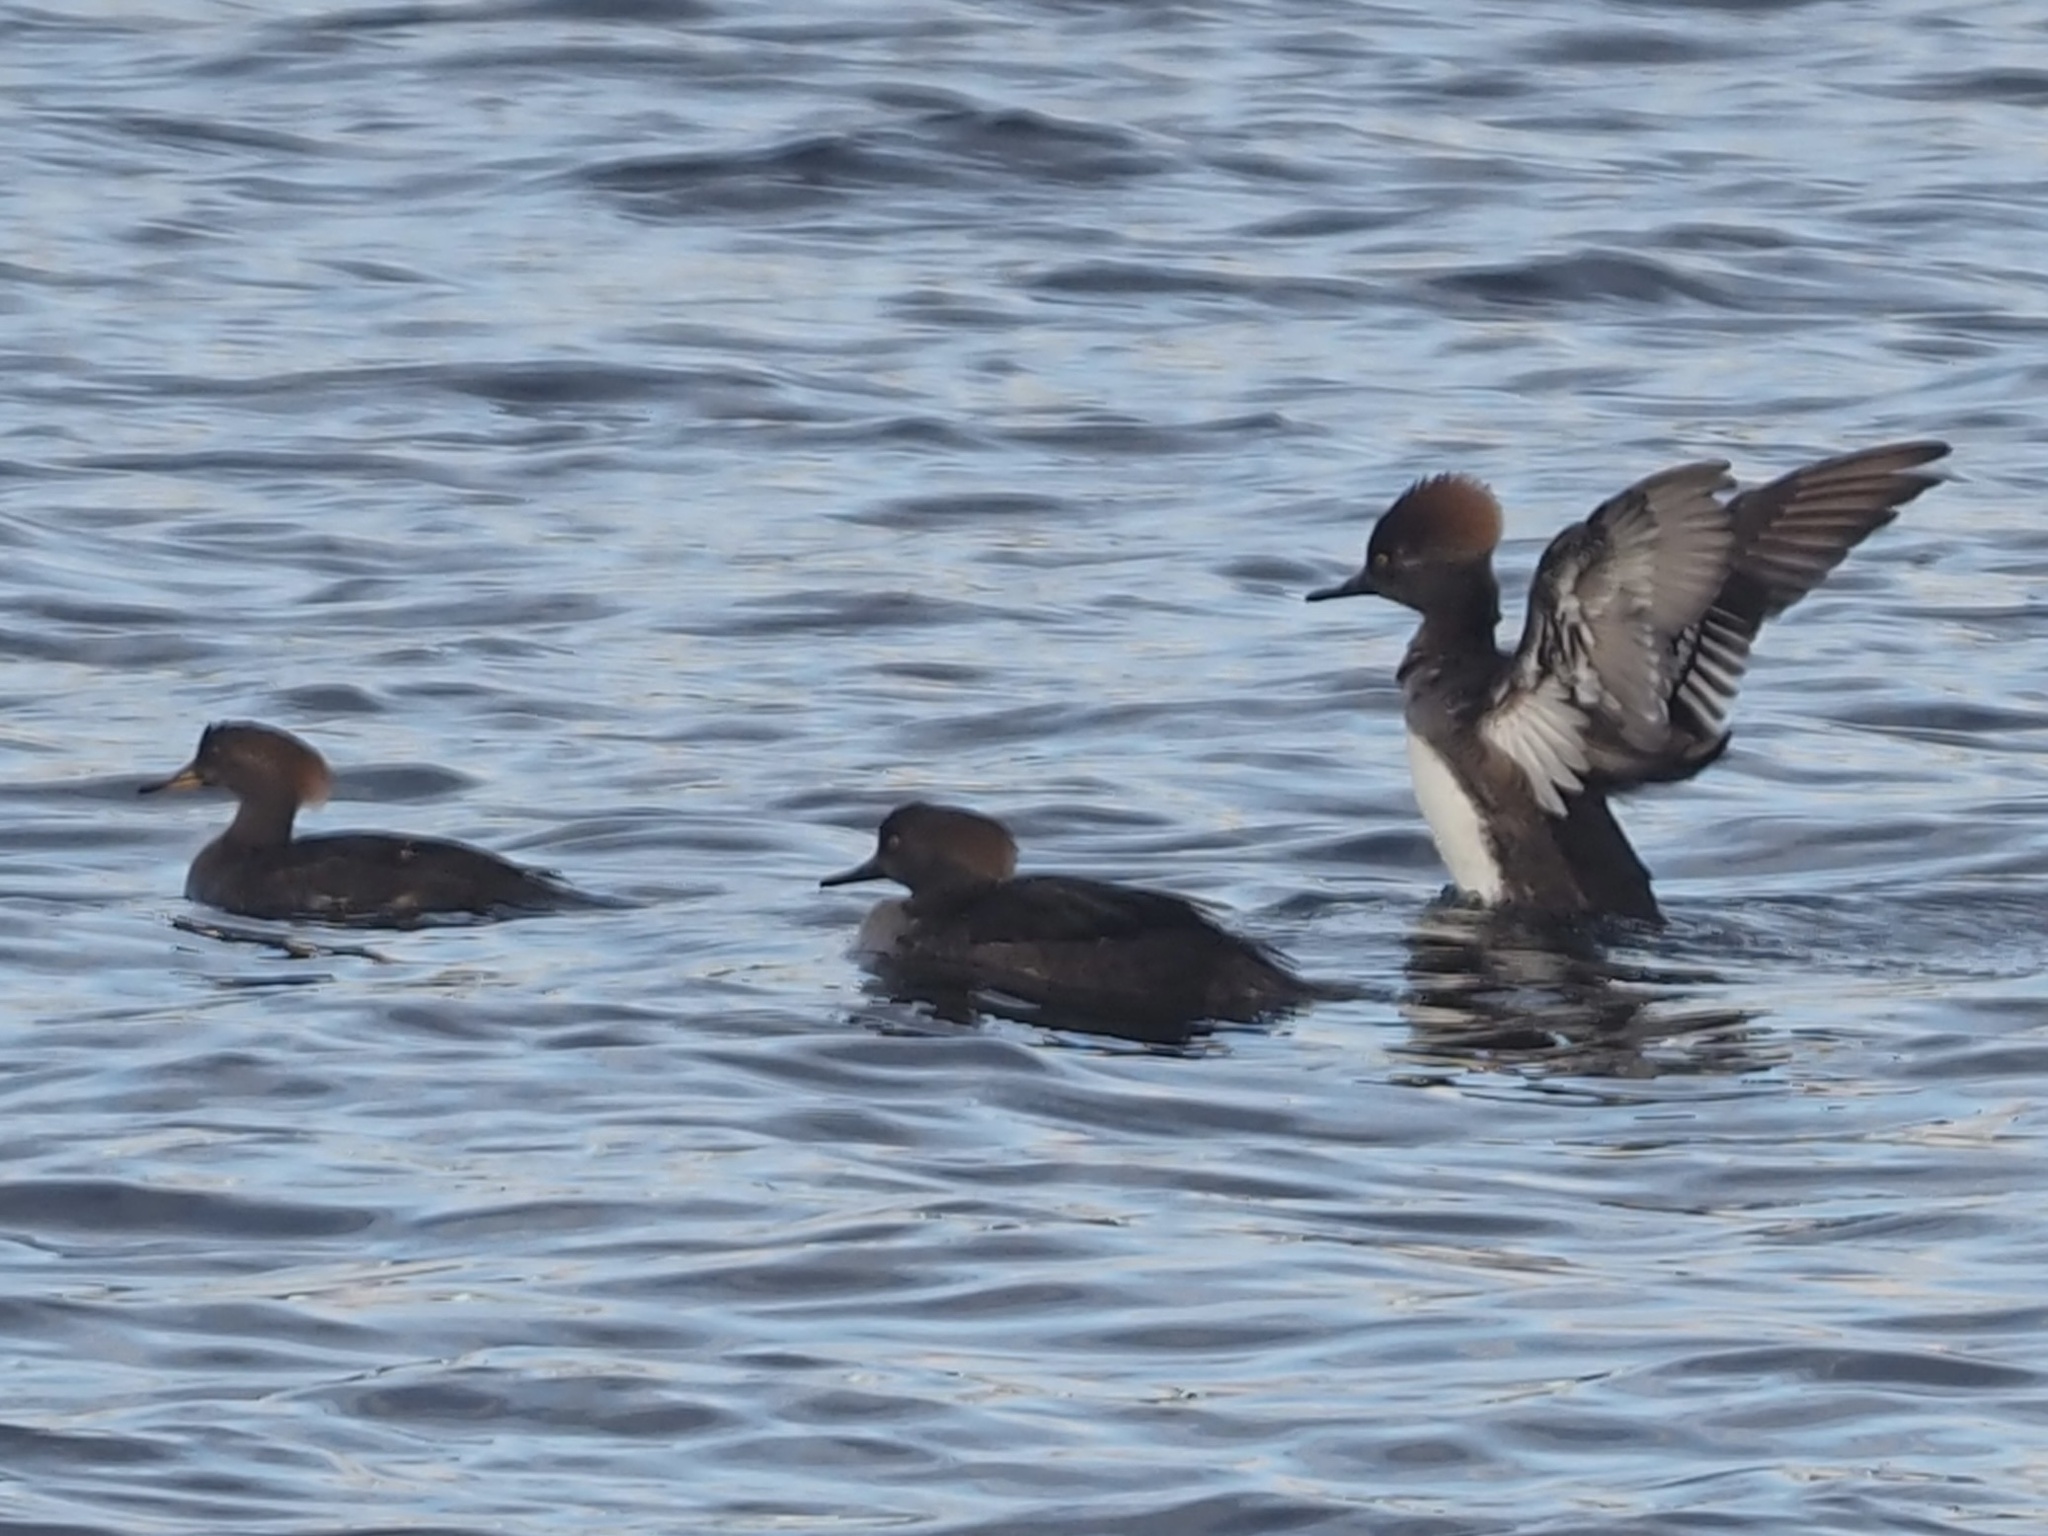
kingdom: Animalia
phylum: Chordata
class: Aves
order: Anseriformes
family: Anatidae
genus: Lophodytes
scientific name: Lophodytes cucullatus
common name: Hooded merganser
